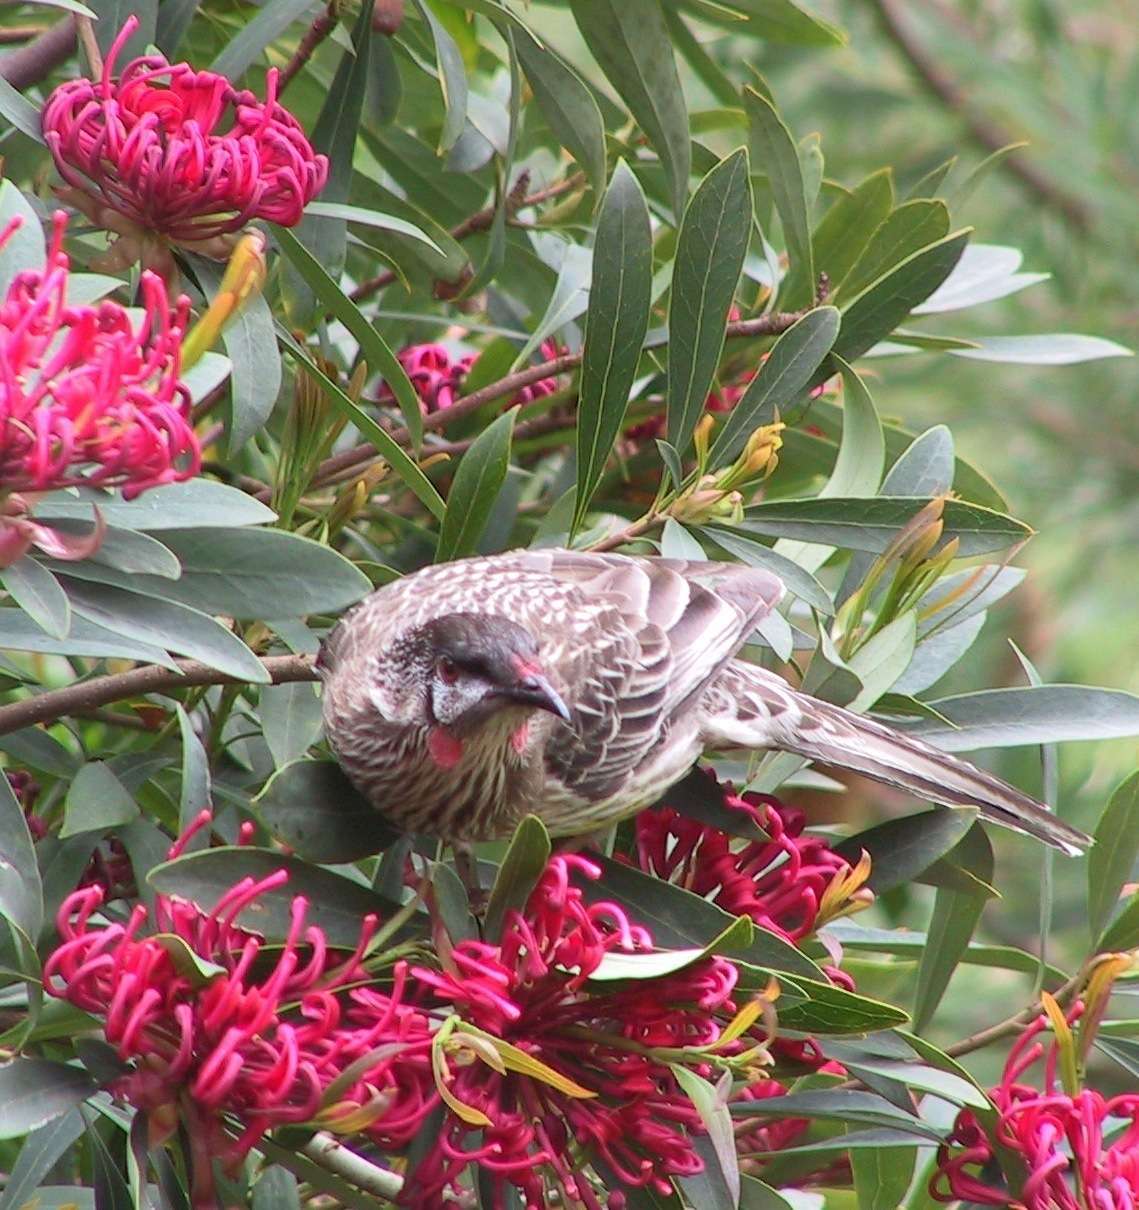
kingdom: Animalia
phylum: Chordata
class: Aves
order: Passeriformes
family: Meliphagidae
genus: Anthochaera
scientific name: Anthochaera carunculata
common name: Red wattlebird
